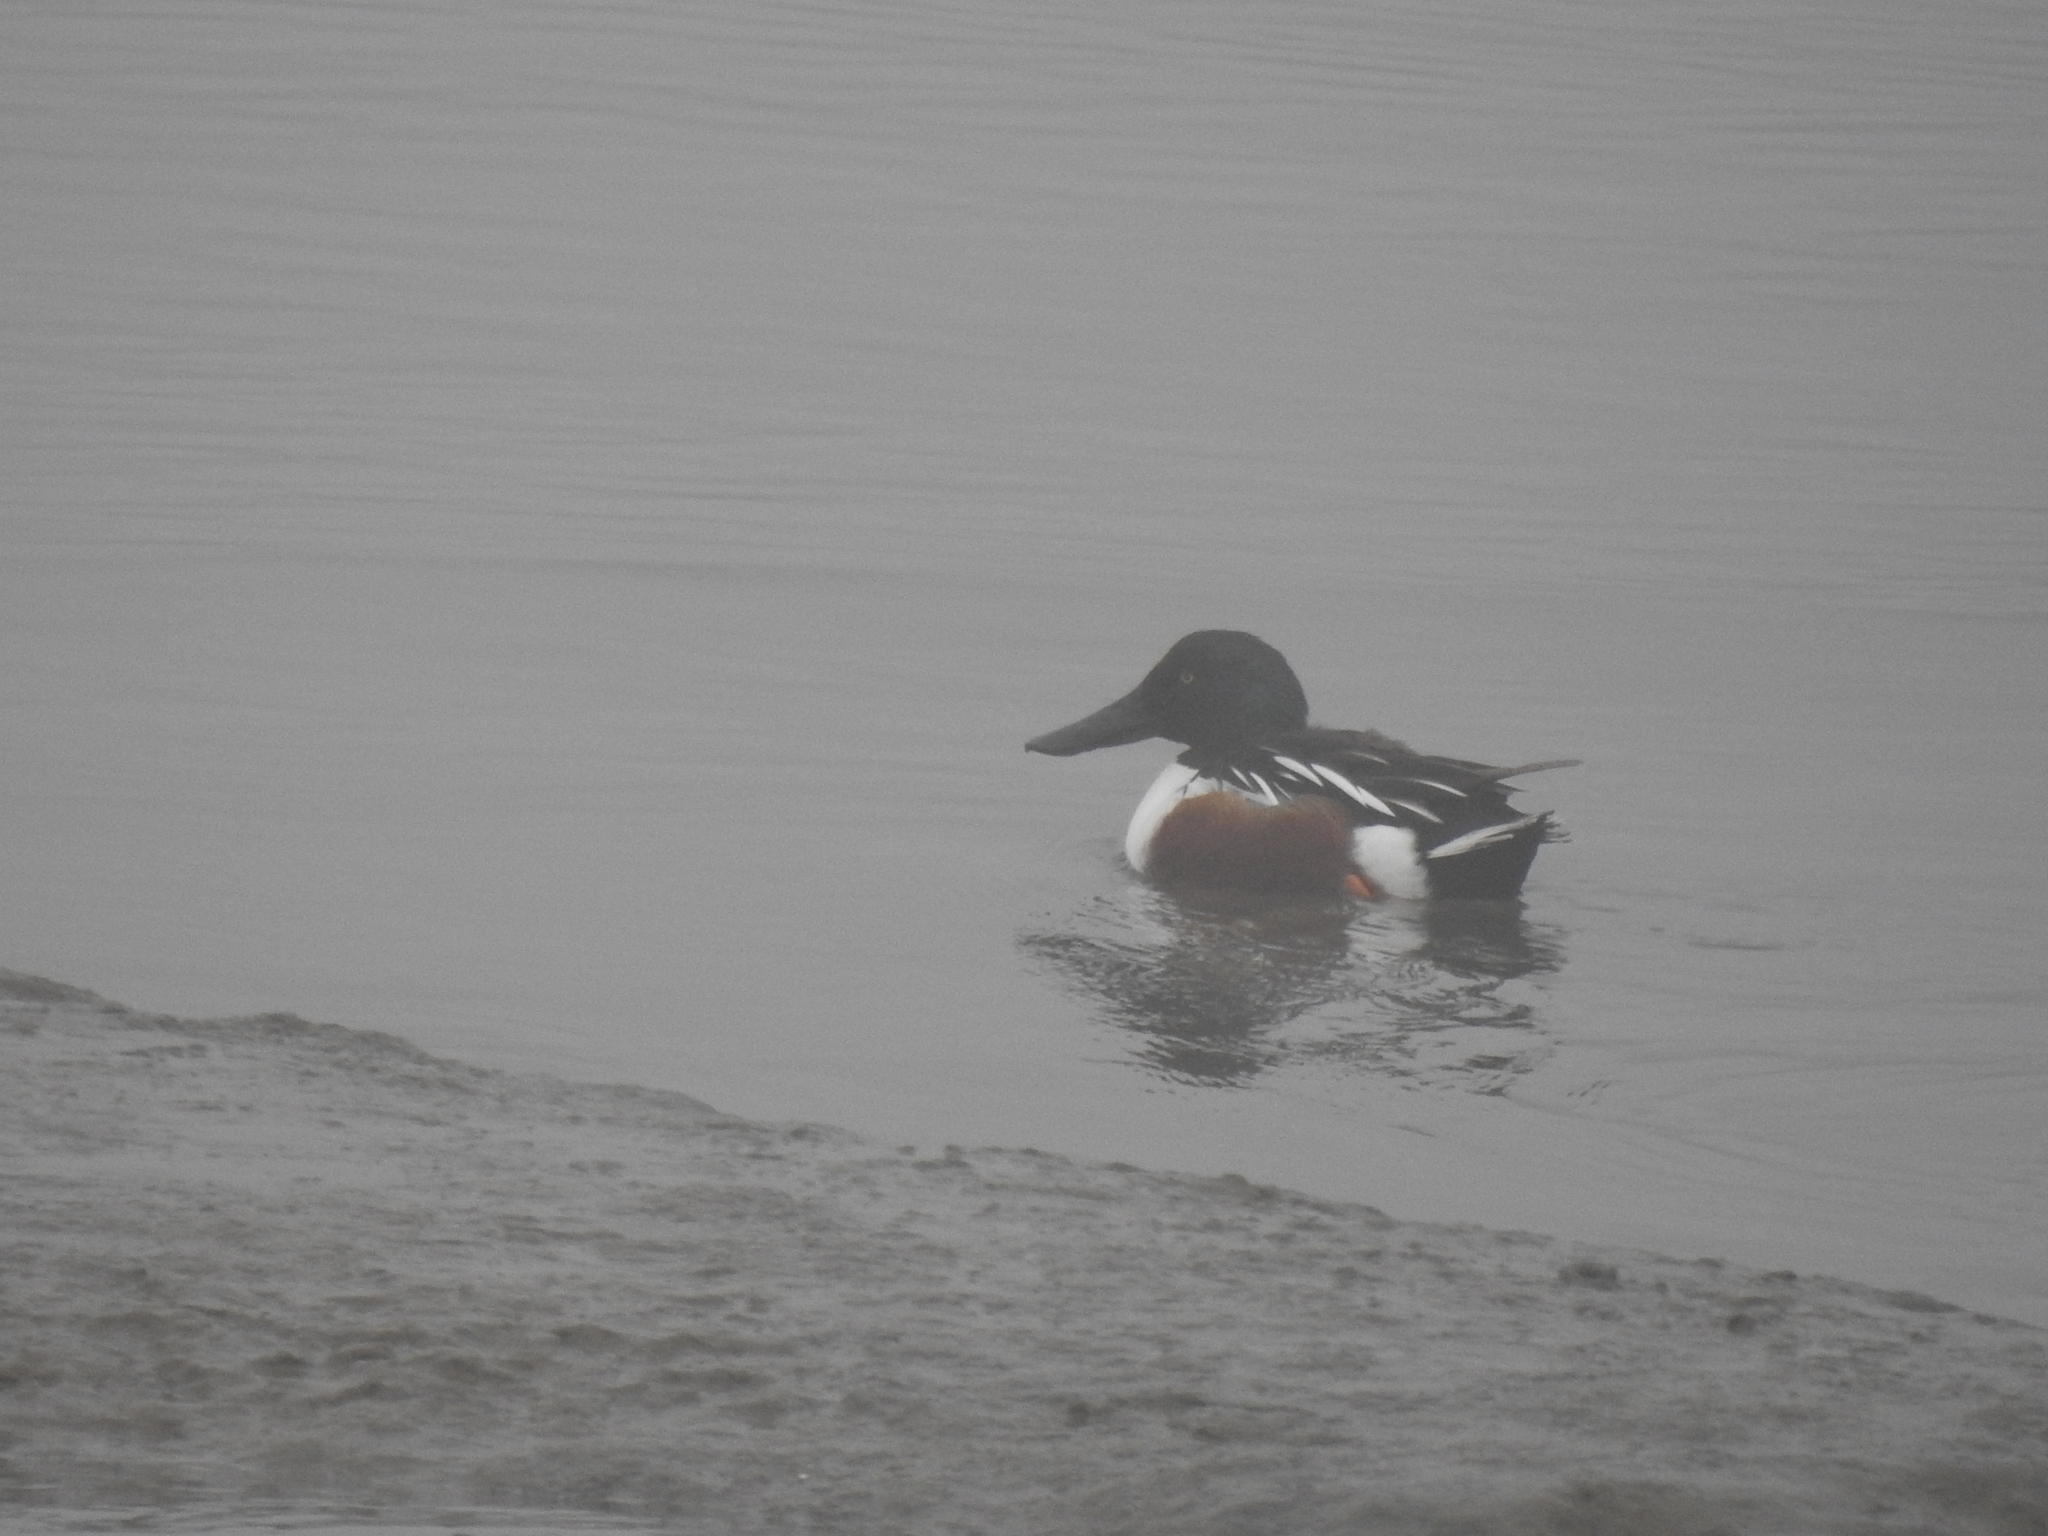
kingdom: Animalia
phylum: Chordata
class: Aves
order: Anseriformes
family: Anatidae
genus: Spatula
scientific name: Spatula clypeata
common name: Northern shoveler
